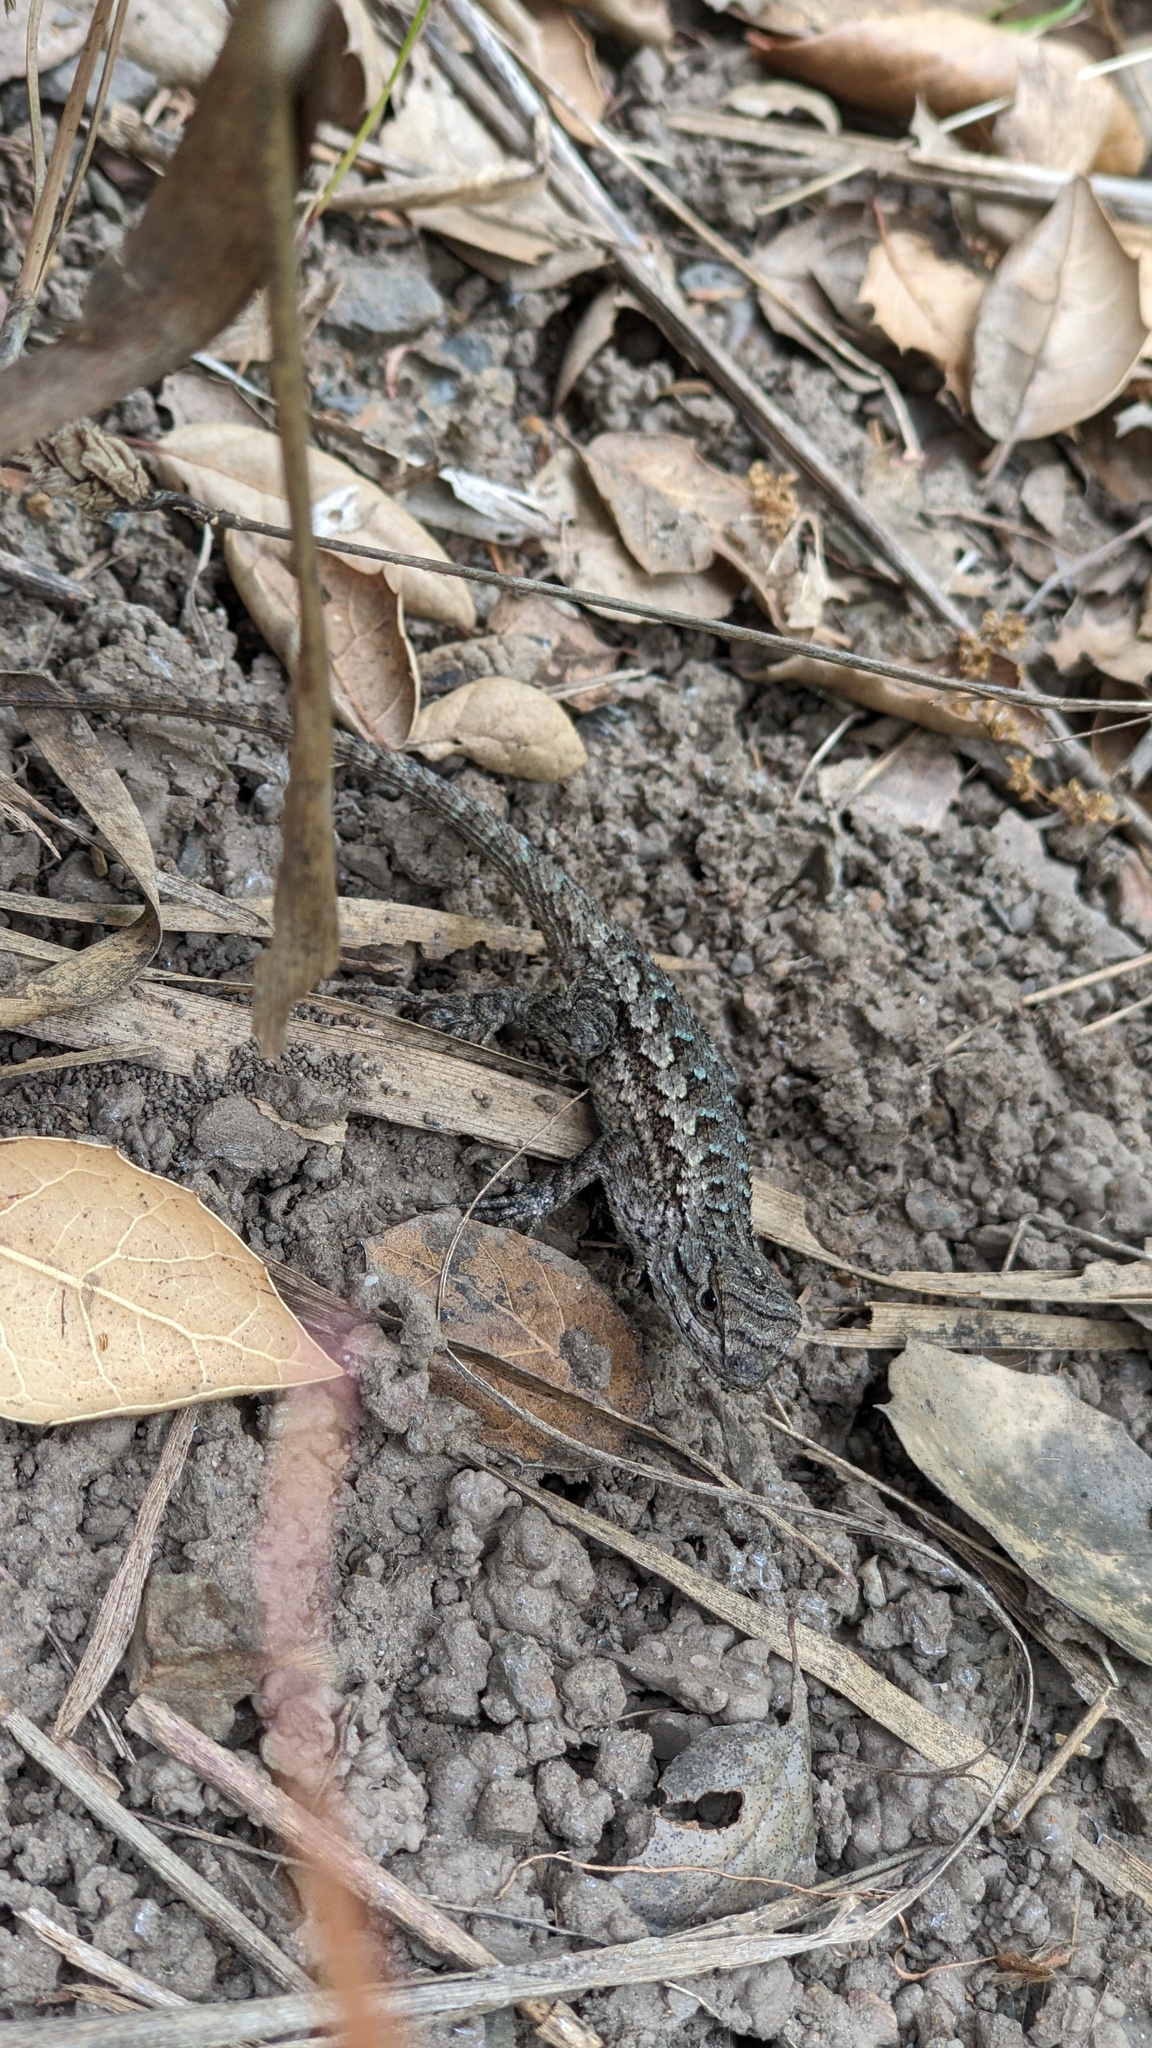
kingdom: Animalia
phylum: Chordata
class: Squamata
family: Phrynosomatidae
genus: Sceloporus
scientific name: Sceloporus occidentalis
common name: Western fence lizard
